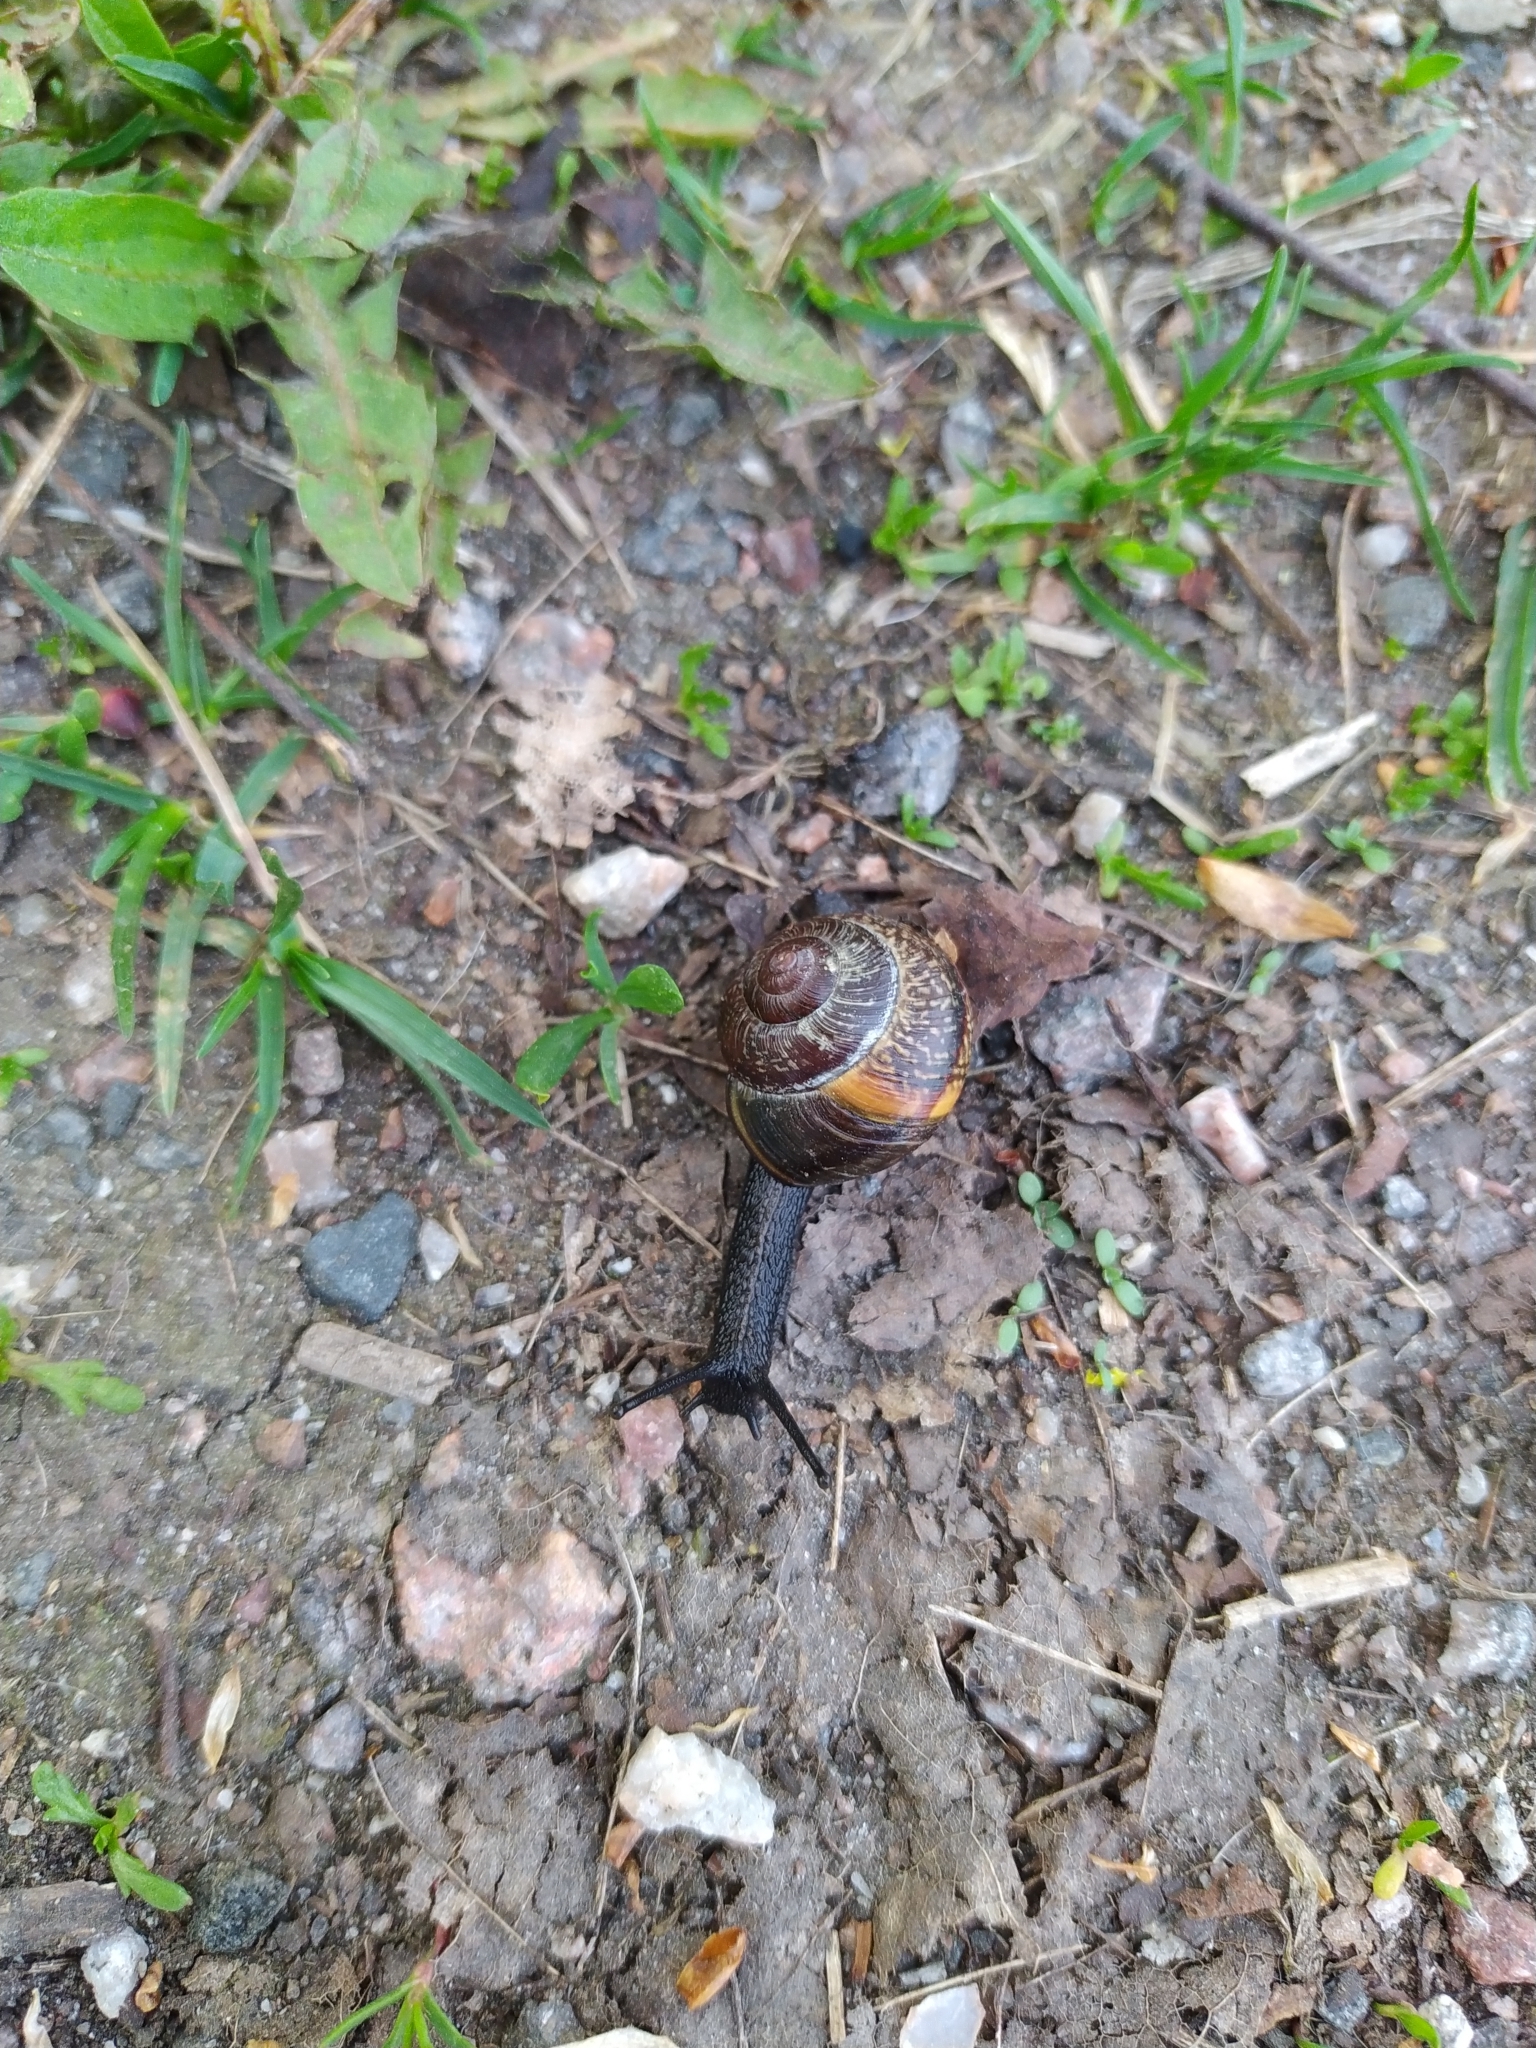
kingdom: Animalia
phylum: Mollusca
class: Gastropoda
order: Stylommatophora
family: Helicidae
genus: Arianta
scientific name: Arianta arbustorum
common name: Copse snail
